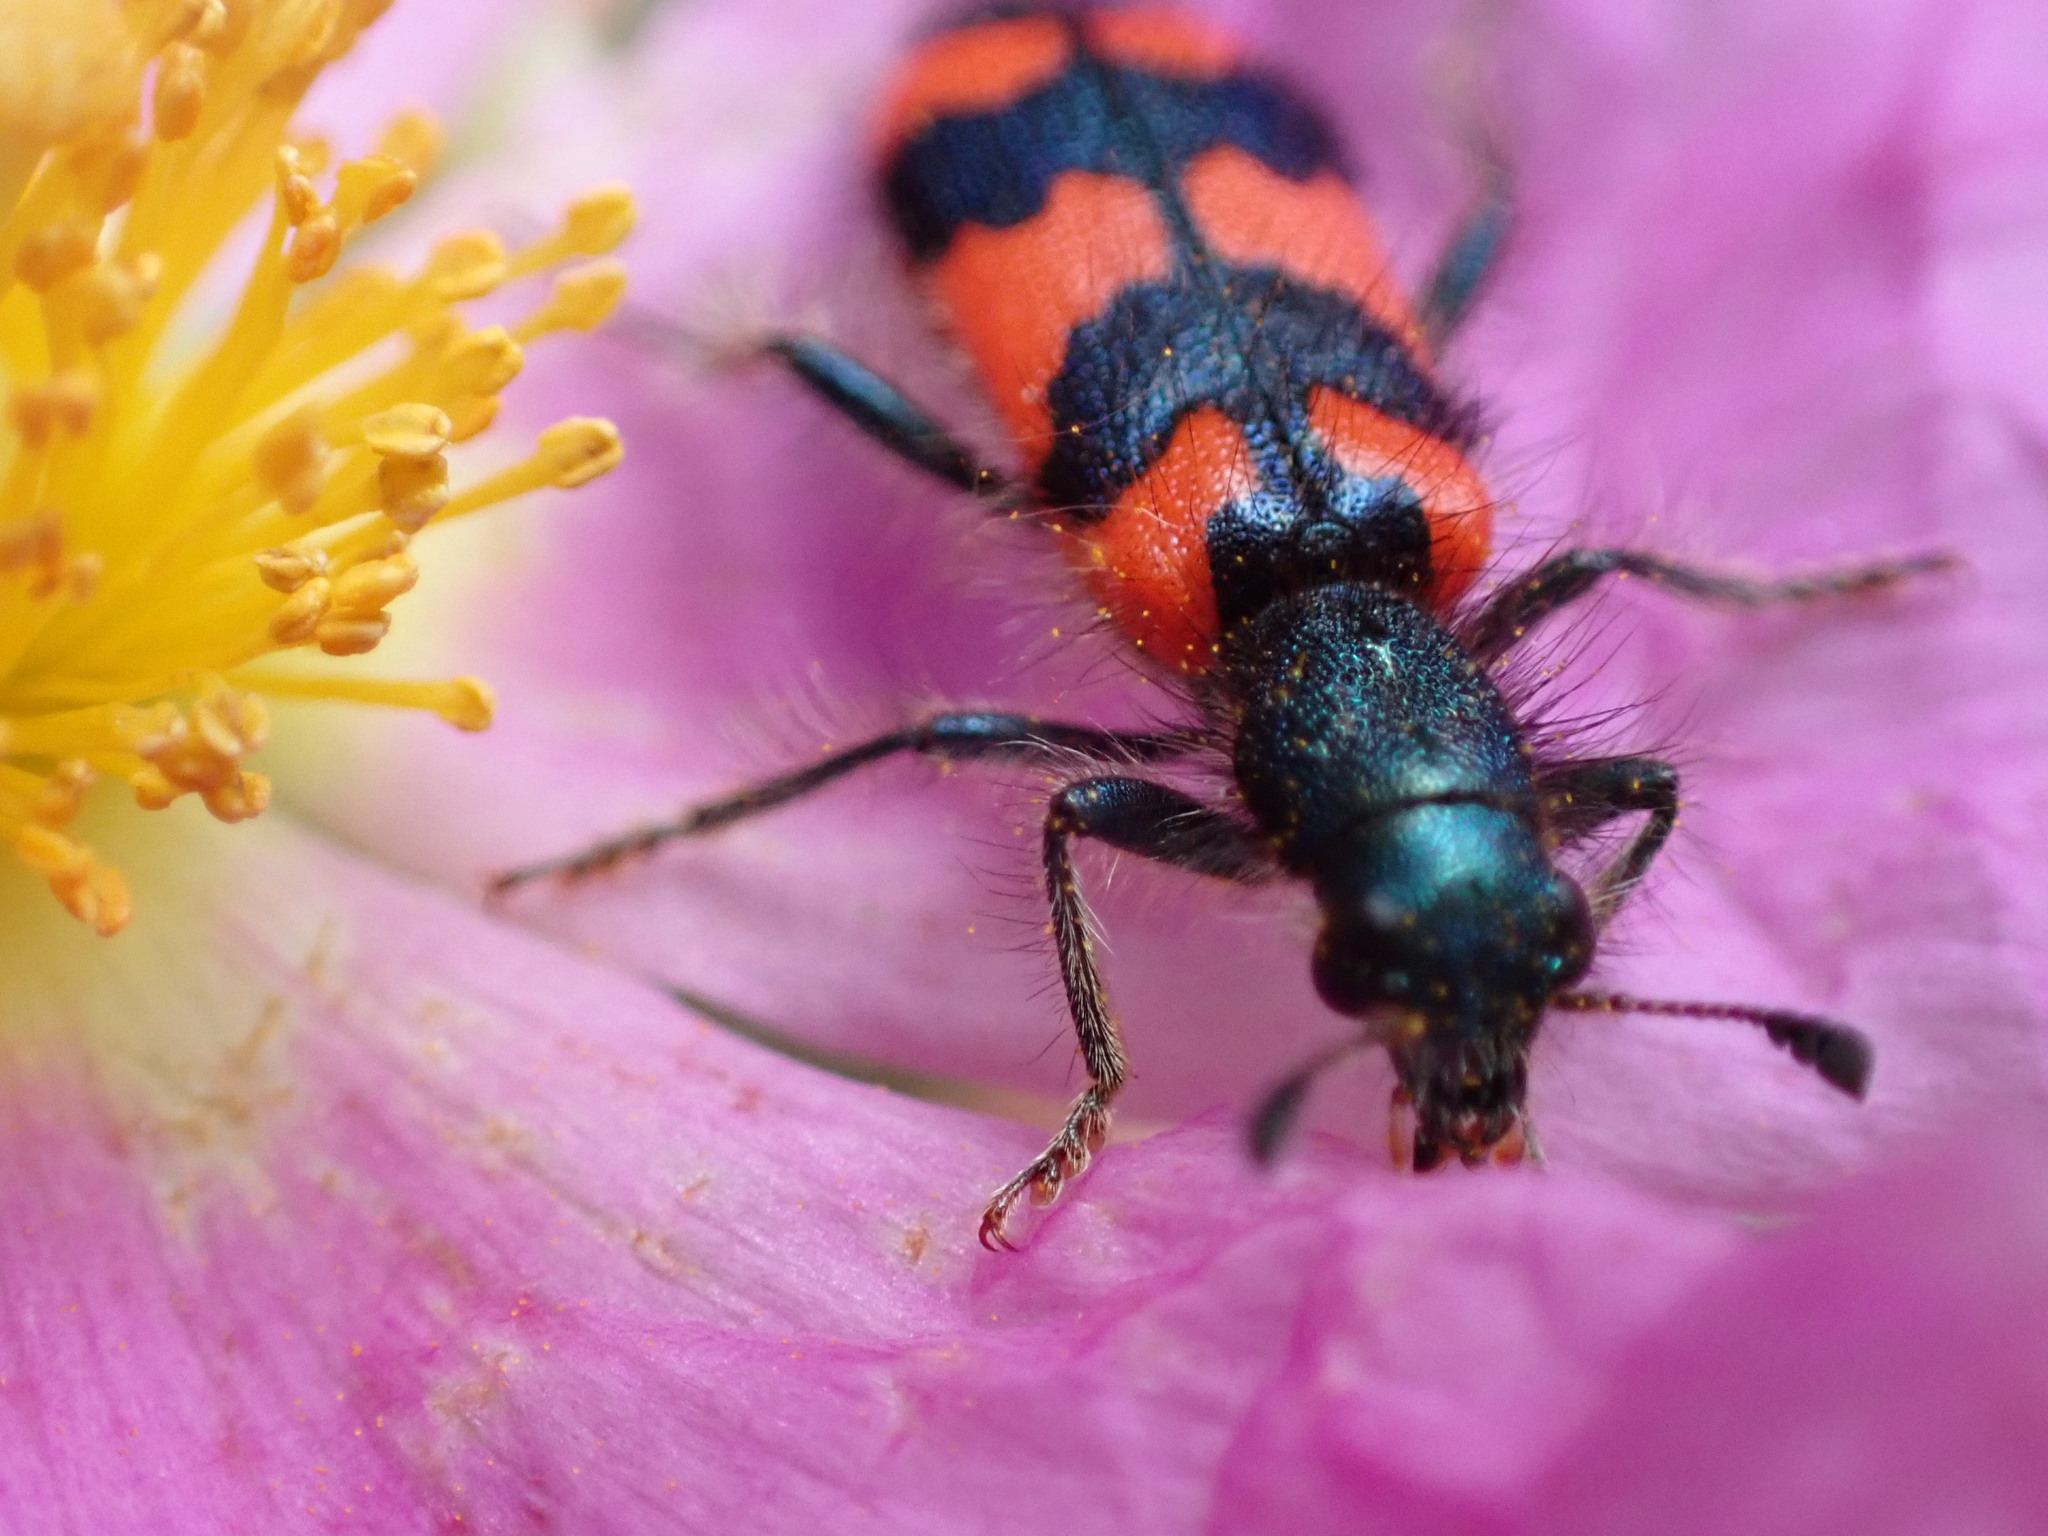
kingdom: Animalia
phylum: Arthropoda
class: Insecta
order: Coleoptera
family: Cleridae
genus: Trichodes
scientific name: Trichodes alvearius
